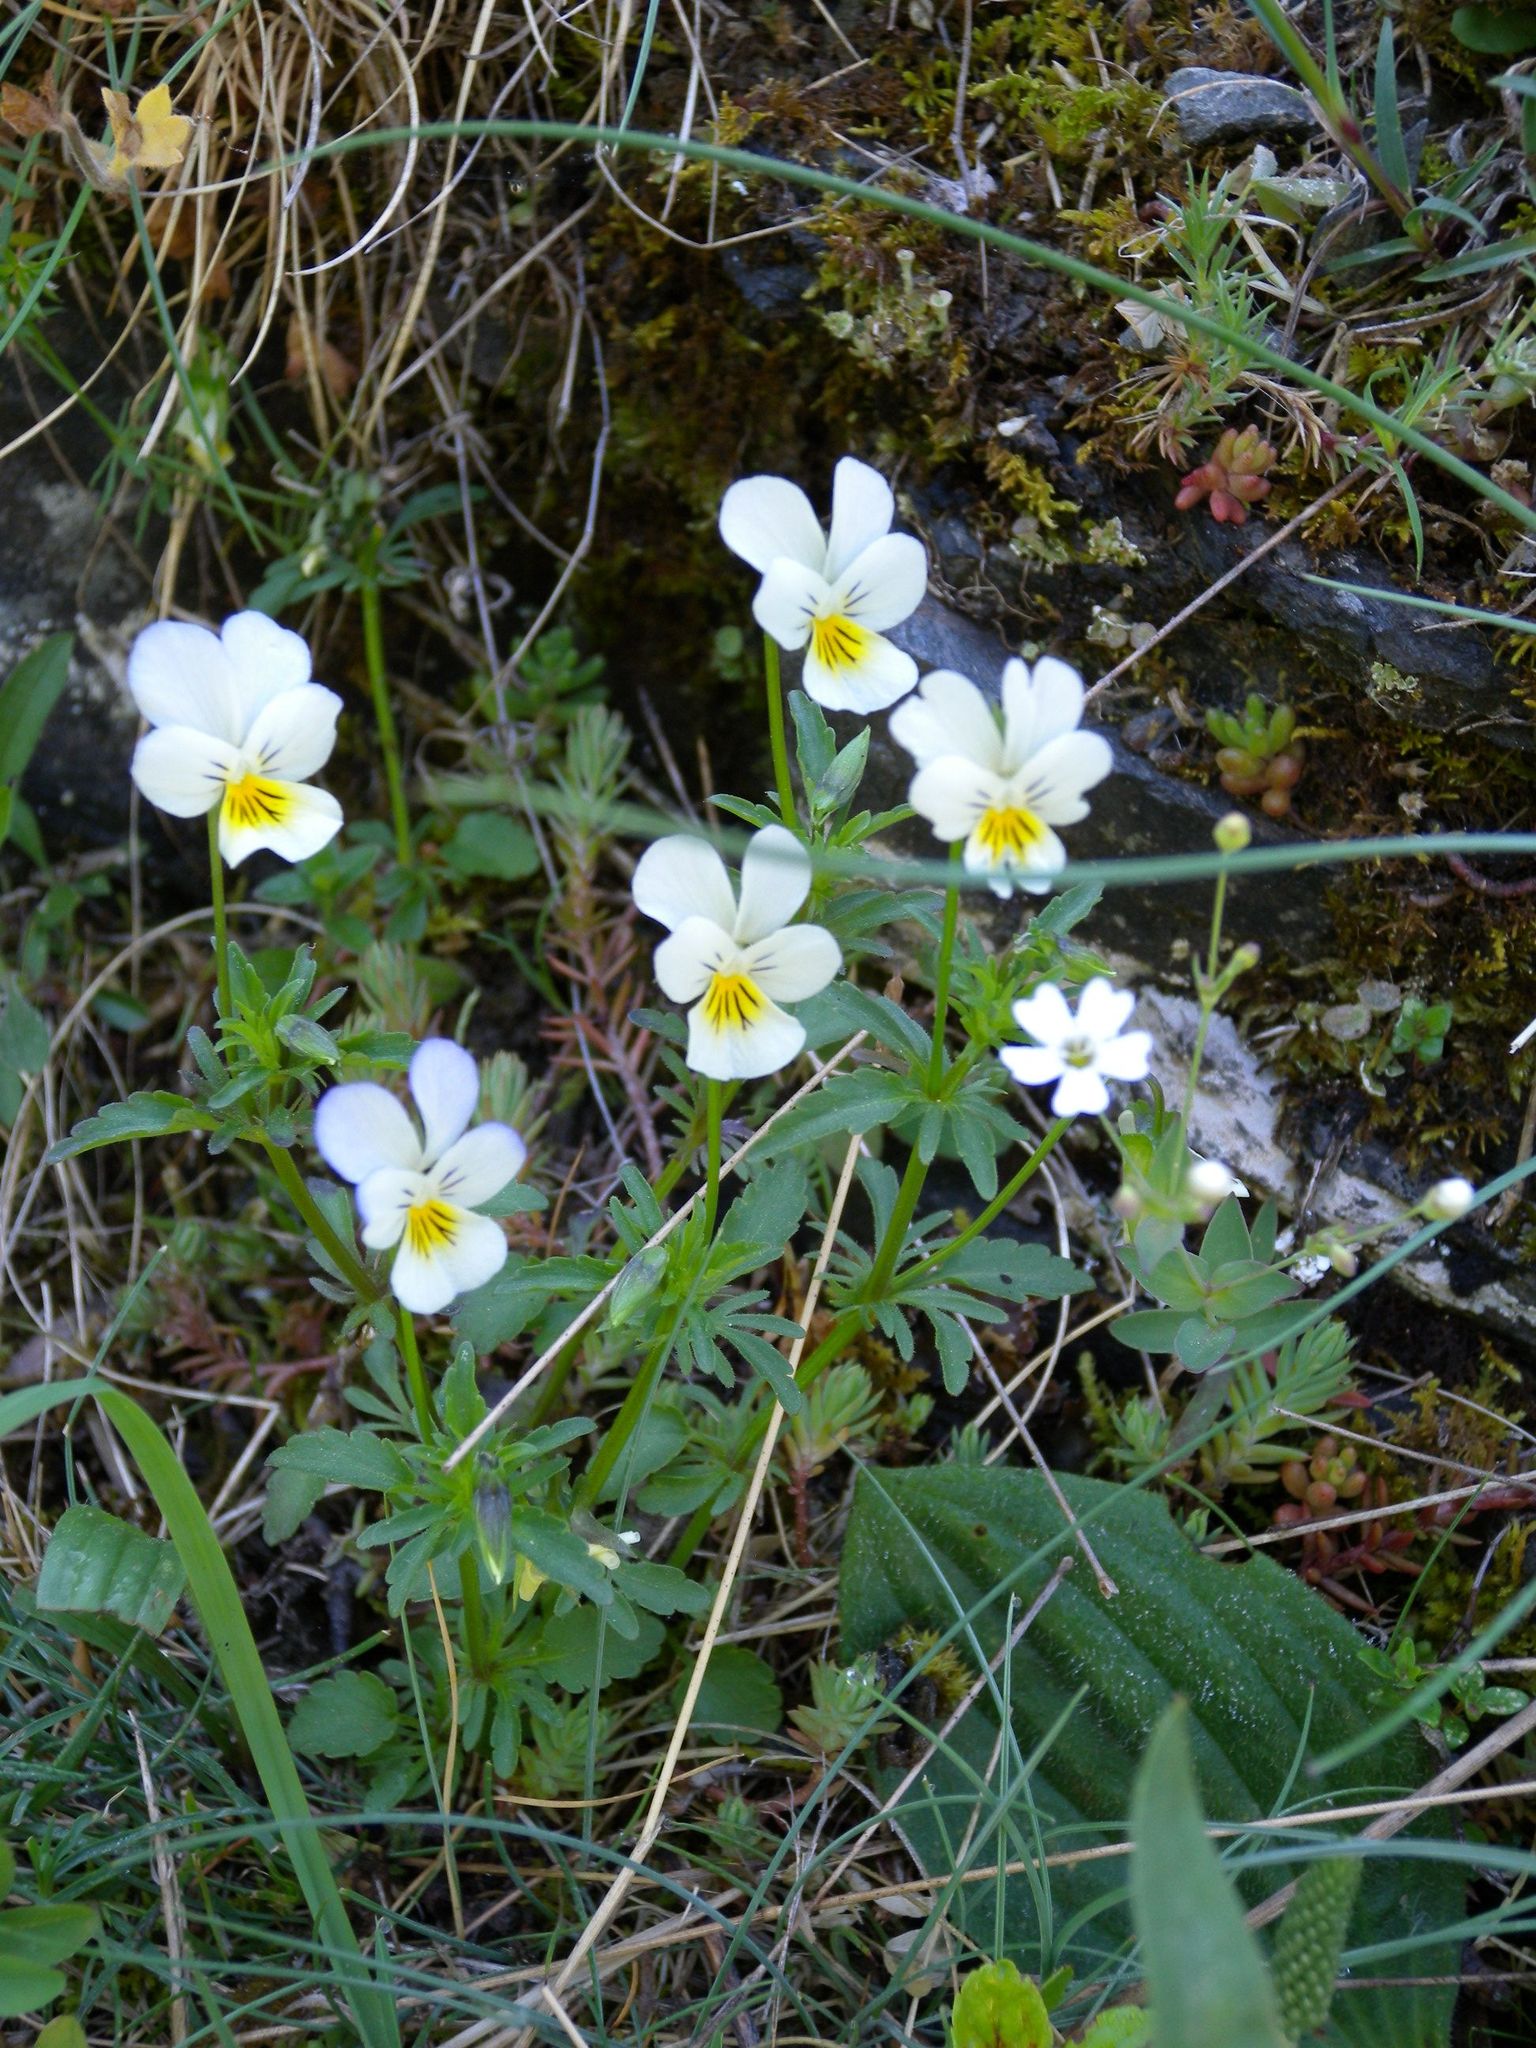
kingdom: Plantae
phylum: Tracheophyta
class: Magnoliopsida
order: Malpighiales
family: Violaceae
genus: Viola
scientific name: Viola tricolor
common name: Pansy
